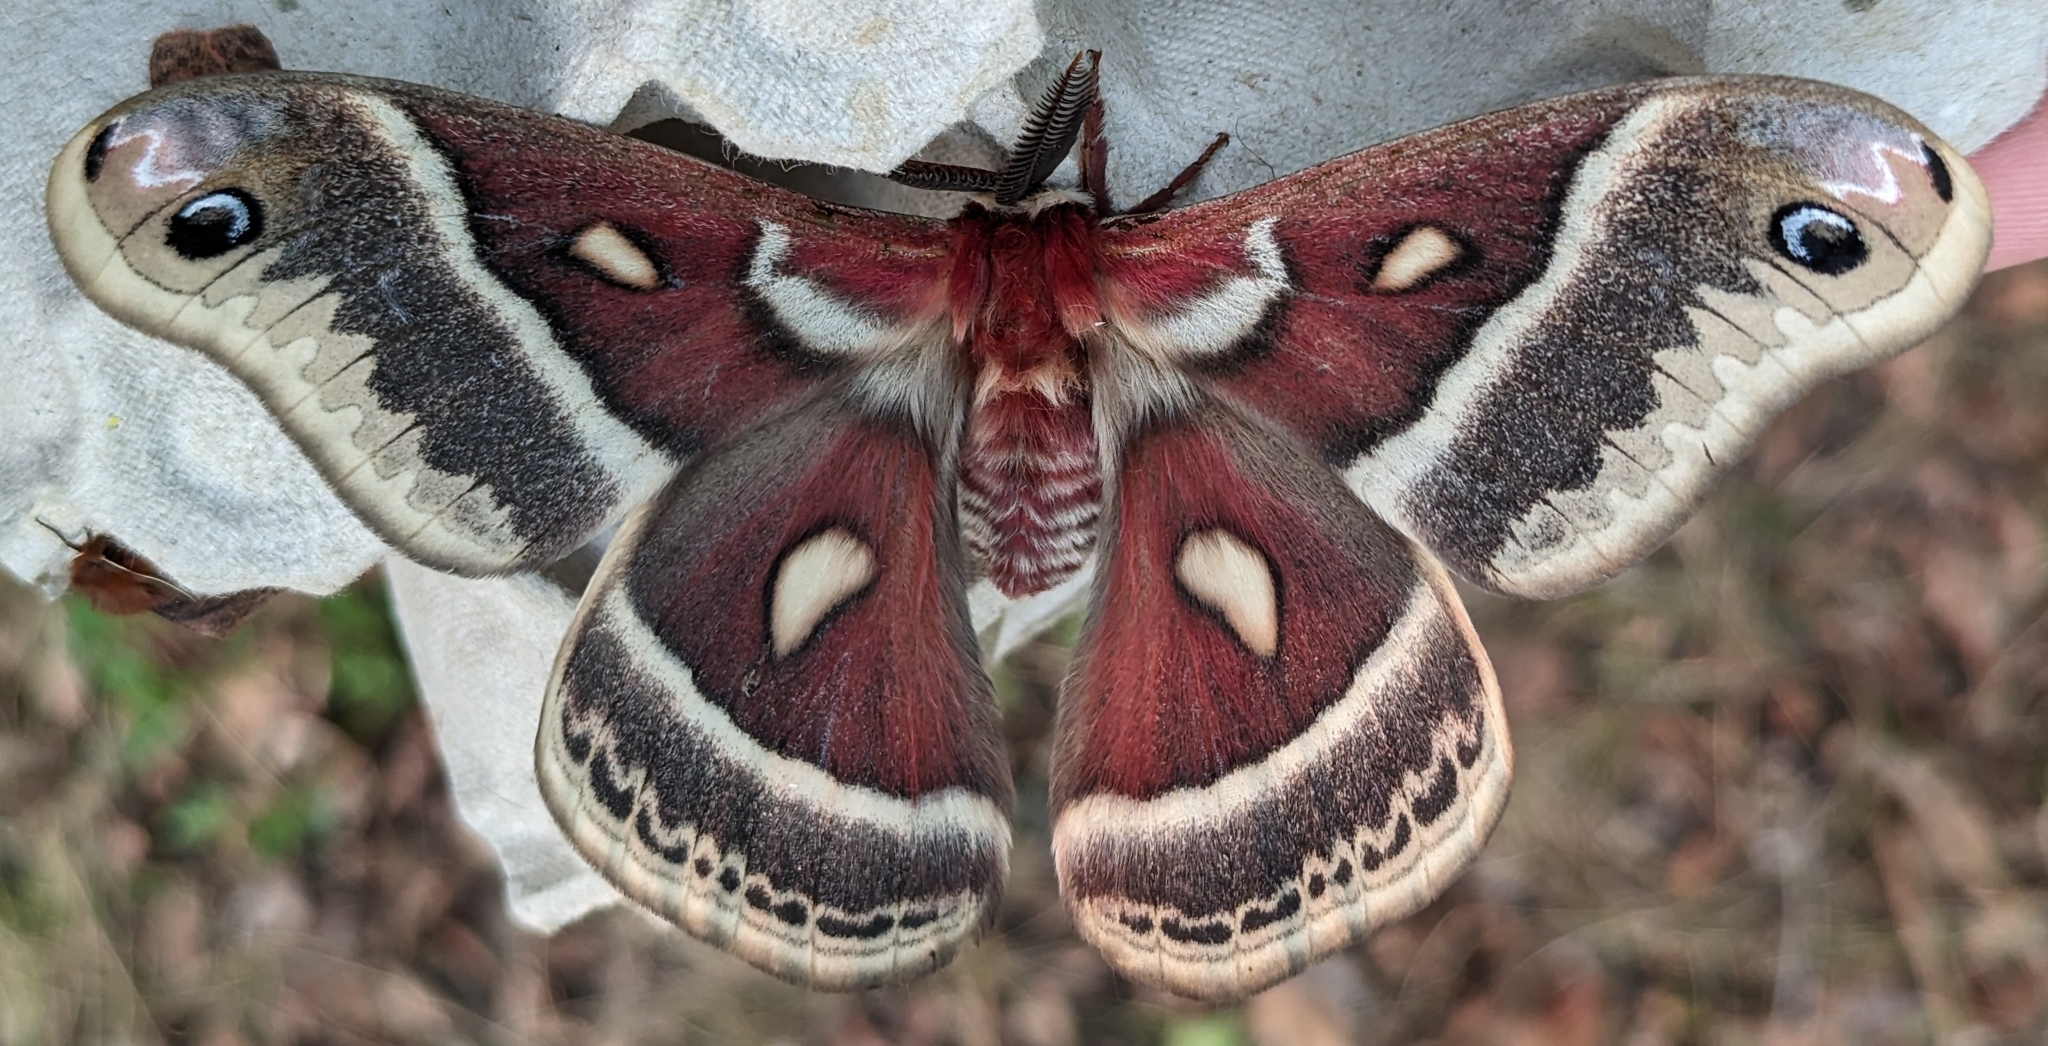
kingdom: Animalia
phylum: Arthropoda
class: Insecta
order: Lepidoptera
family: Saturniidae
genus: Hyalophora
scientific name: Hyalophora gloveri
